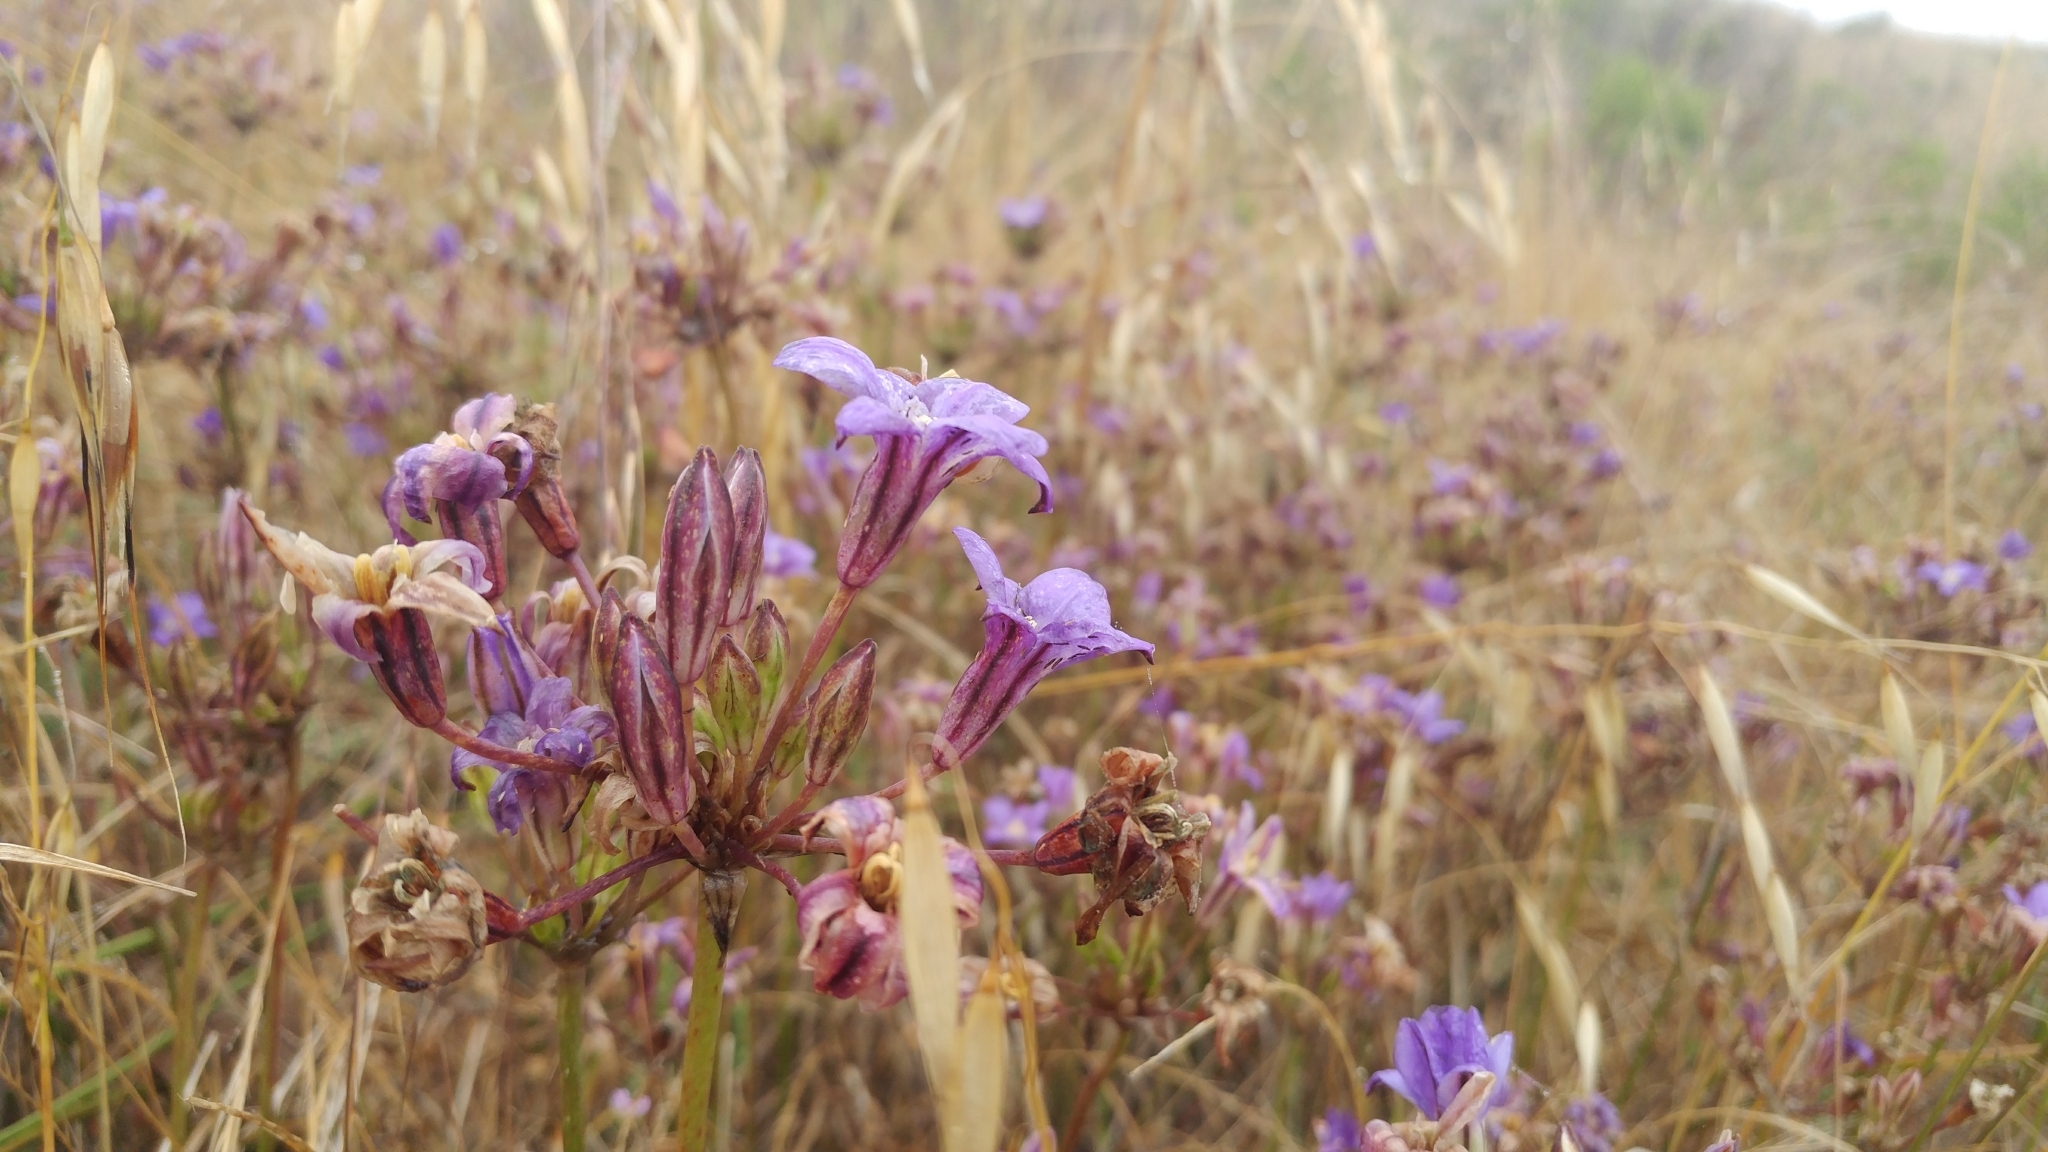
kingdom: Plantae
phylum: Tracheophyta
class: Liliopsida
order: Asparagales
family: Asparagaceae
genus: Brodiaea
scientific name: Brodiaea kinkiensis
